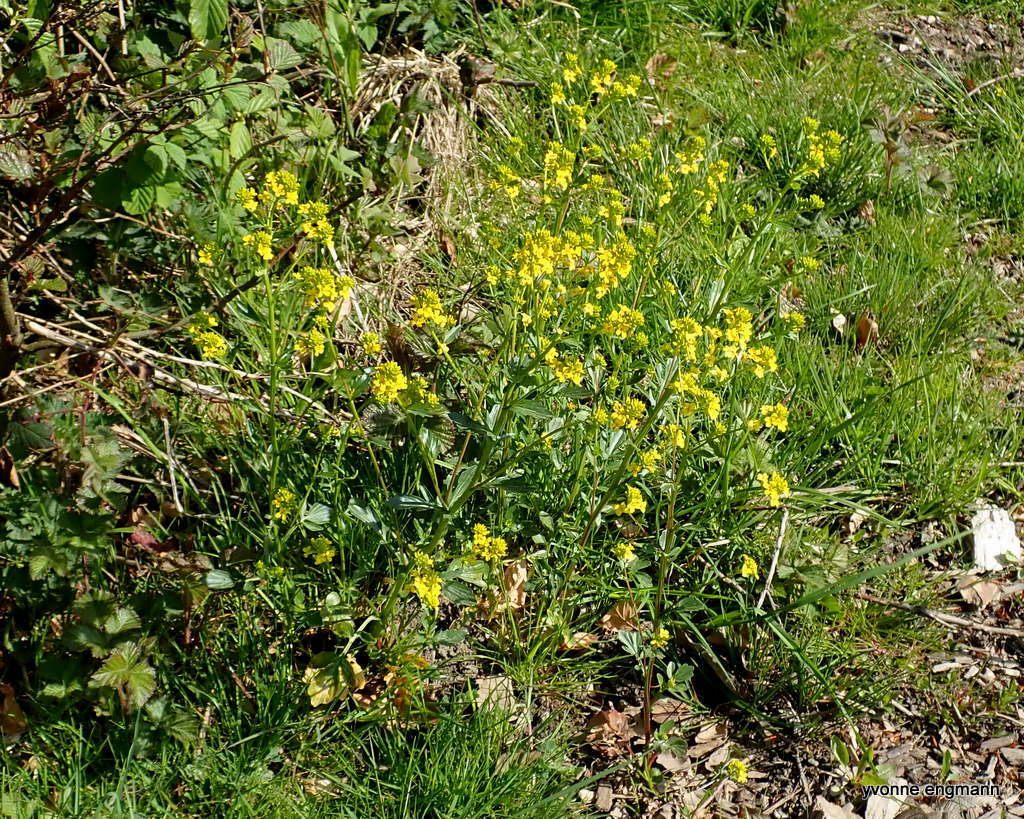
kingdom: Plantae
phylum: Tracheophyta
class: Magnoliopsida
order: Brassicales
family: Brassicaceae
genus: Barbarea
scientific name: Barbarea vulgaris
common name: Cressy-greens
